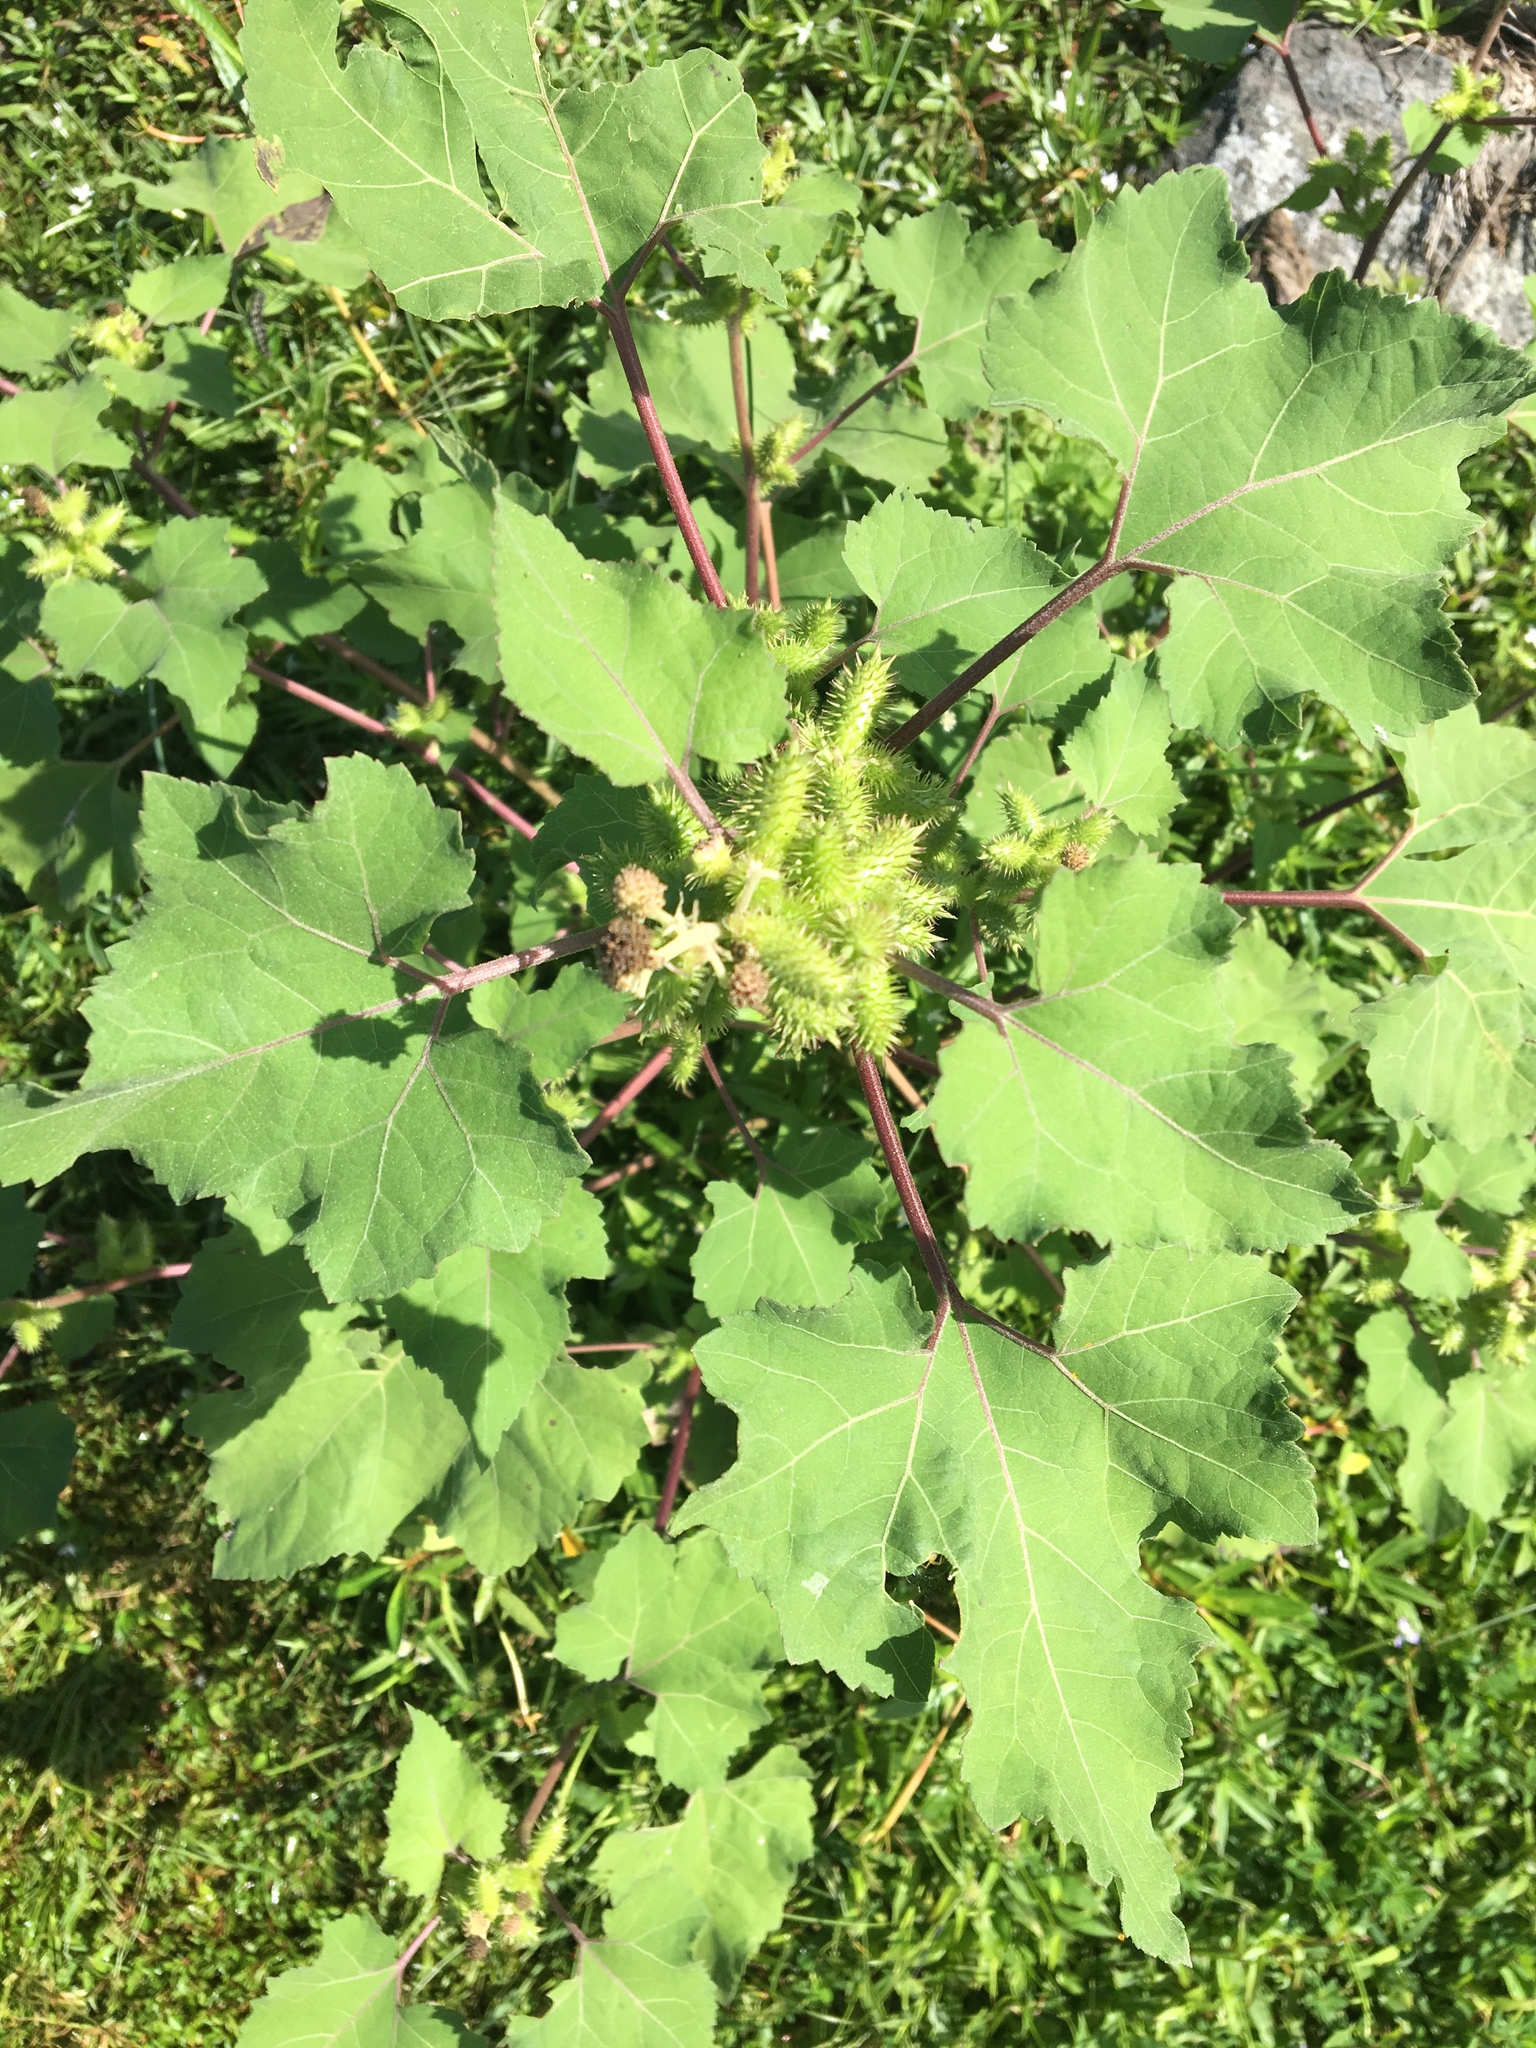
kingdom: Plantae
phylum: Tracheophyta
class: Magnoliopsida
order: Asterales
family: Asteraceae
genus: Xanthium
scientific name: Xanthium strumarium
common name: Rough cocklebur
